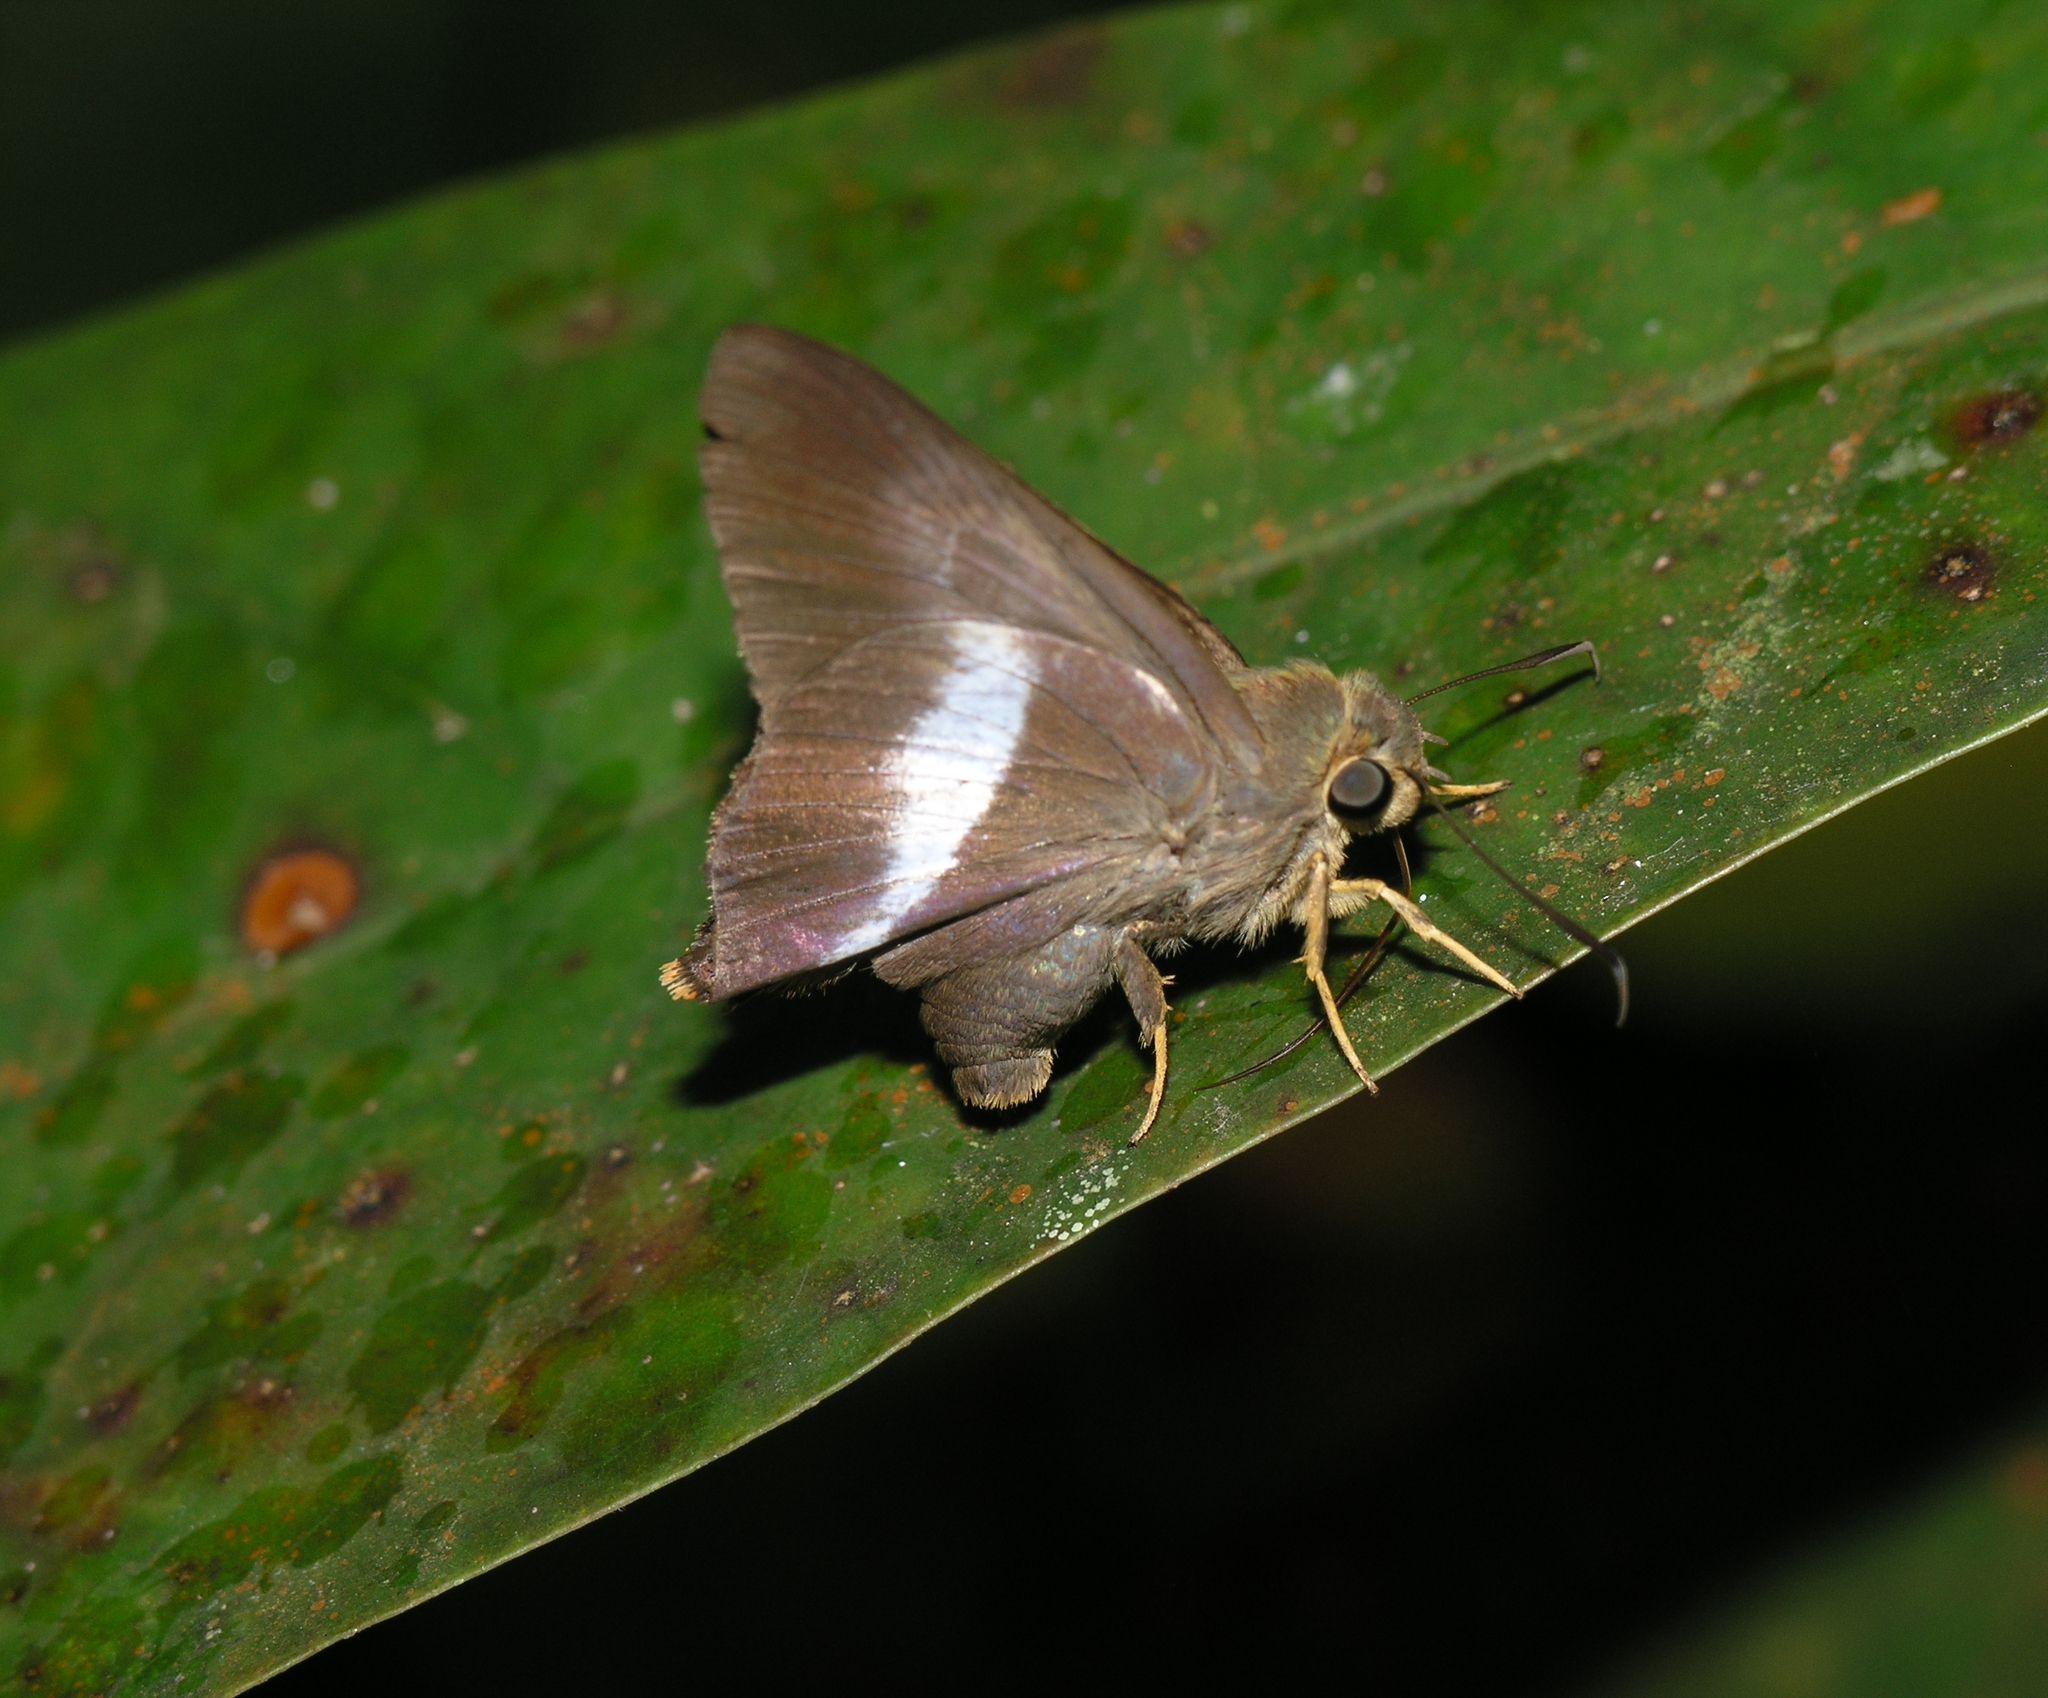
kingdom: Animalia
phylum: Arthropoda
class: Insecta
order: Lepidoptera
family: Hesperiidae
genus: Bibasis
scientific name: Bibasis sena
